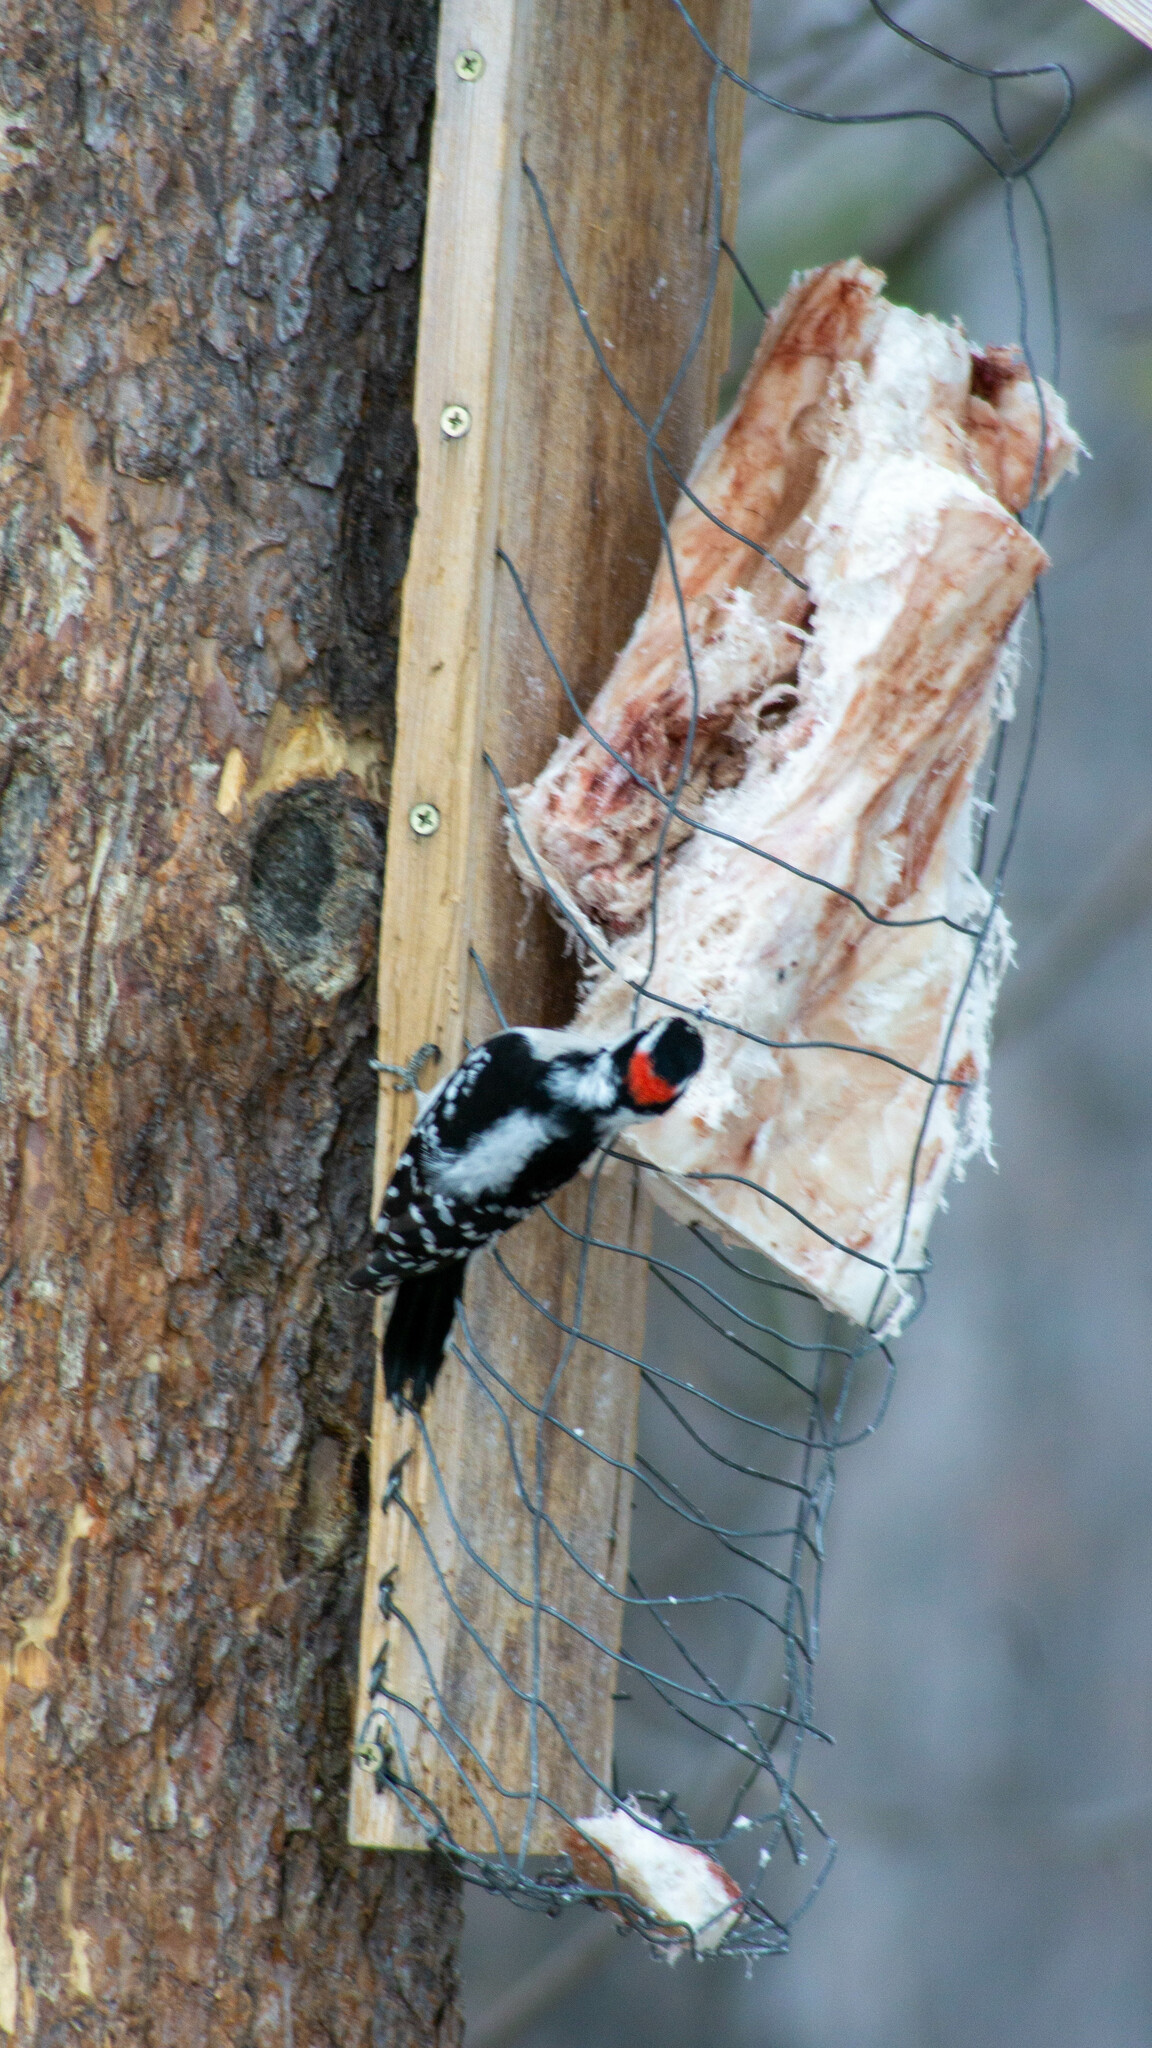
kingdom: Animalia
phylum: Chordata
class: Aves
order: Piciformes
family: Picidae
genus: Dryobates
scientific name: Dryobates pubescens
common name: Downy woodpecker
